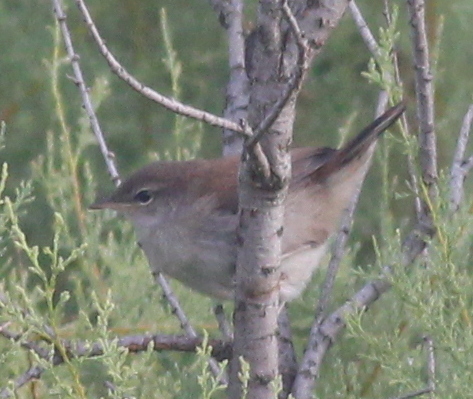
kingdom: Animalia
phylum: Chordata
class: Aves
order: Passeriformes
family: Cettiidae
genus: Cettia
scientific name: Cettia cetti
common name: Cetti's warbler
